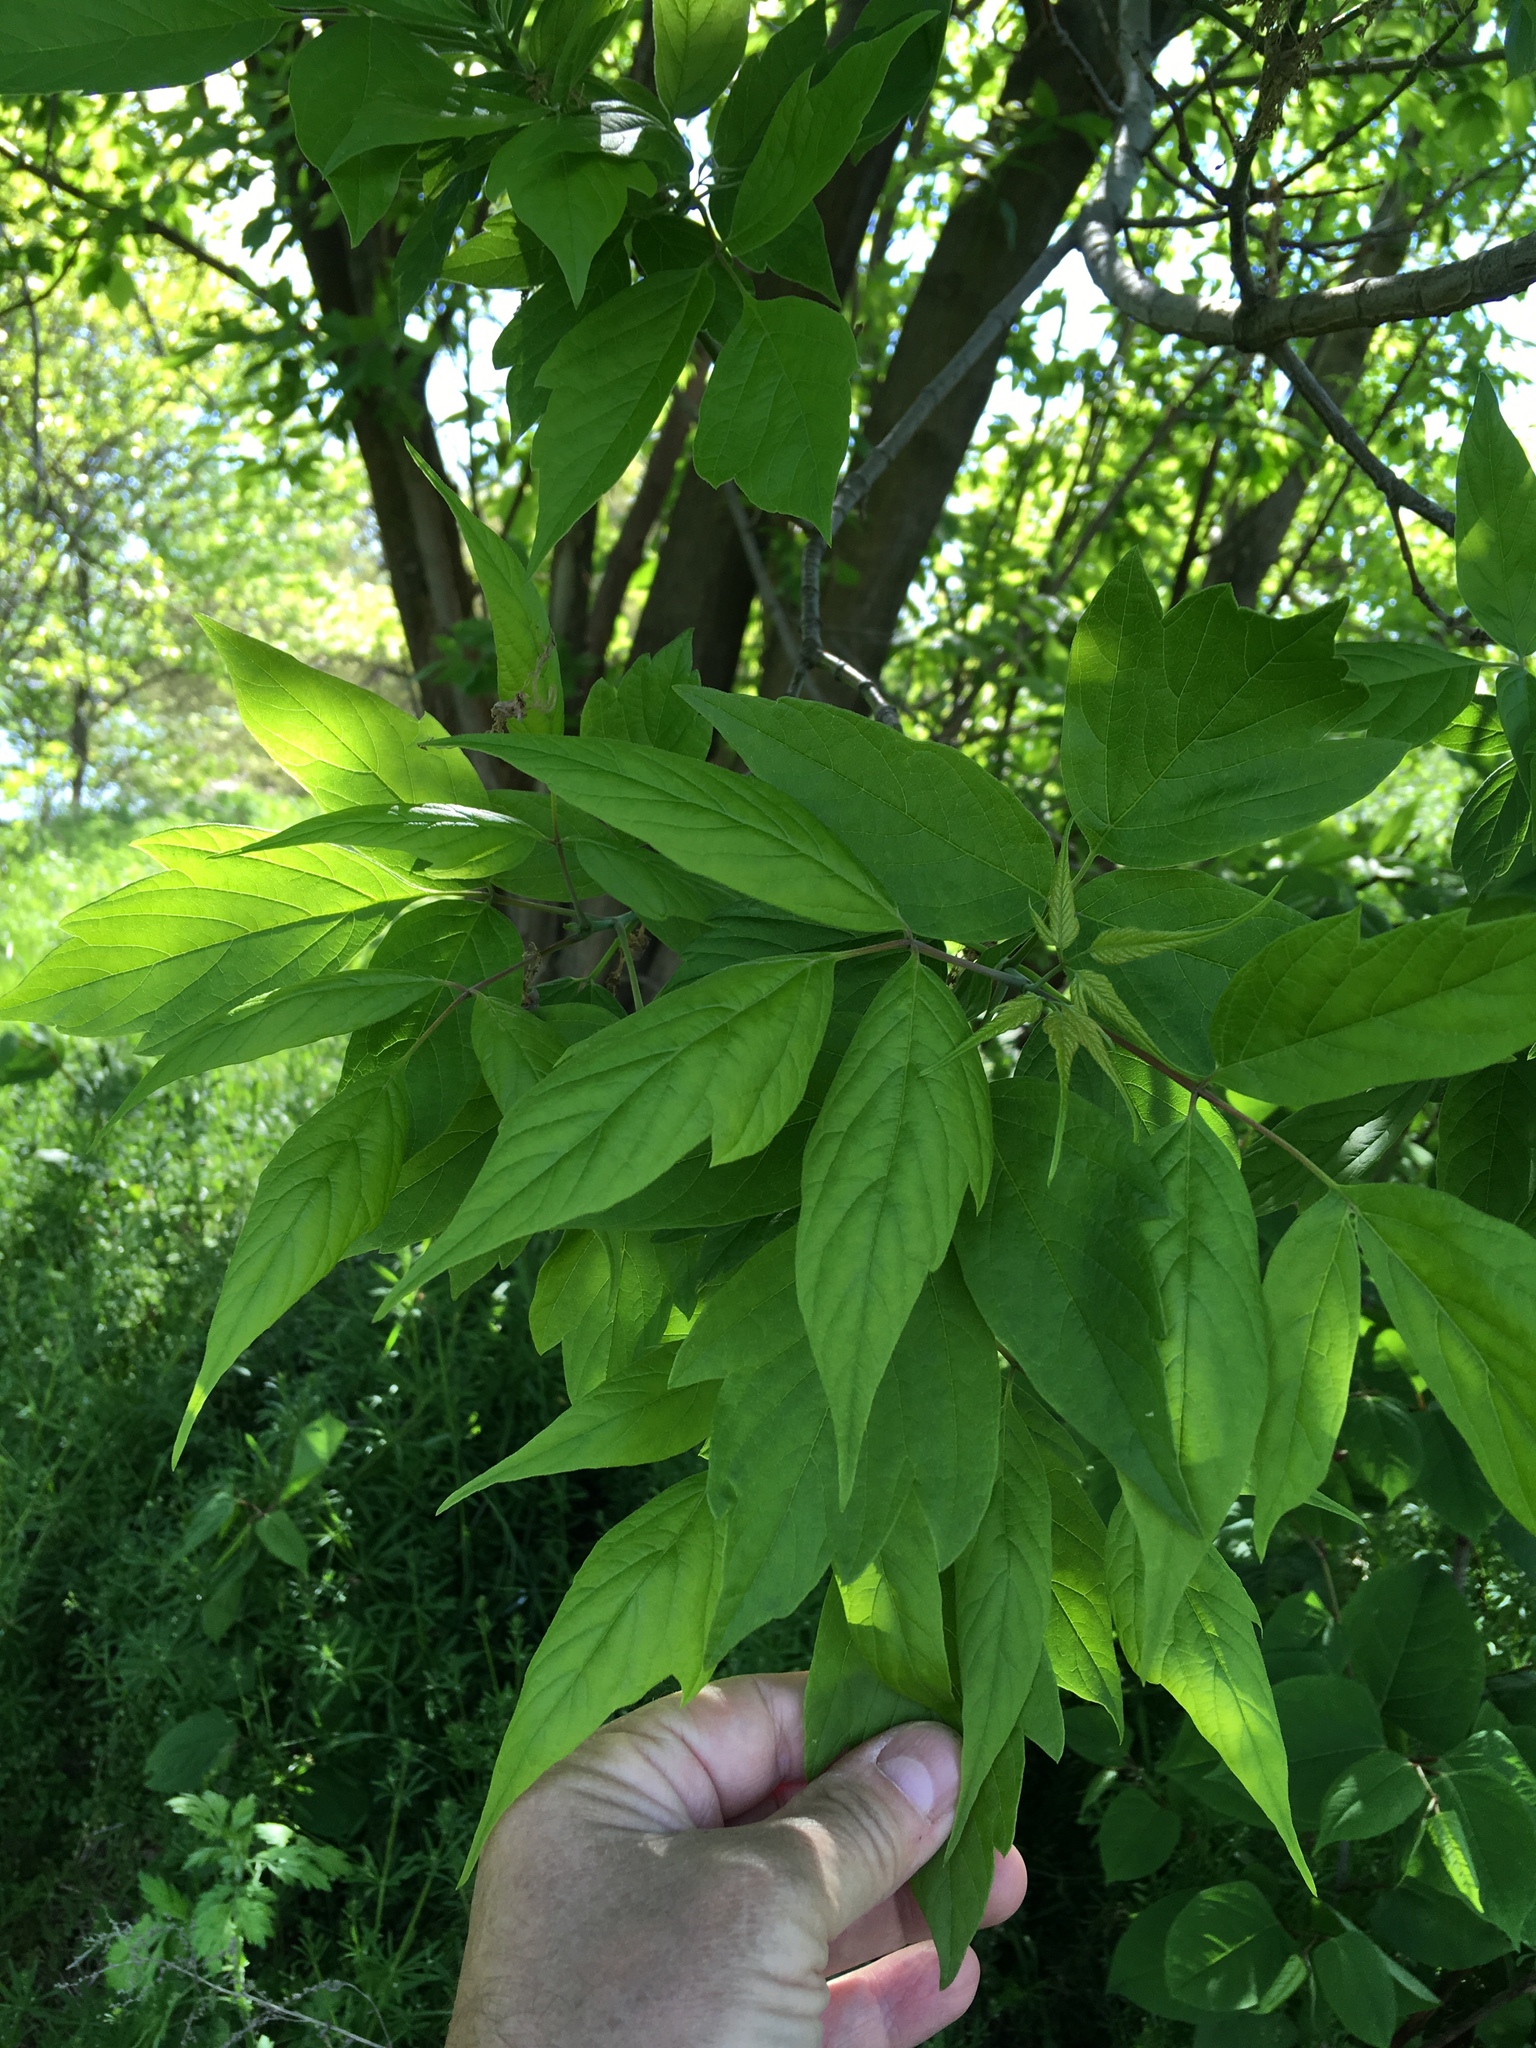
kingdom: Plantae
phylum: Tracheophyta
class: Magnoliopsida
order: Sapindales
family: Sapindaceae
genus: Acer
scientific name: Acer negundo
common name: Ashleaf maple
